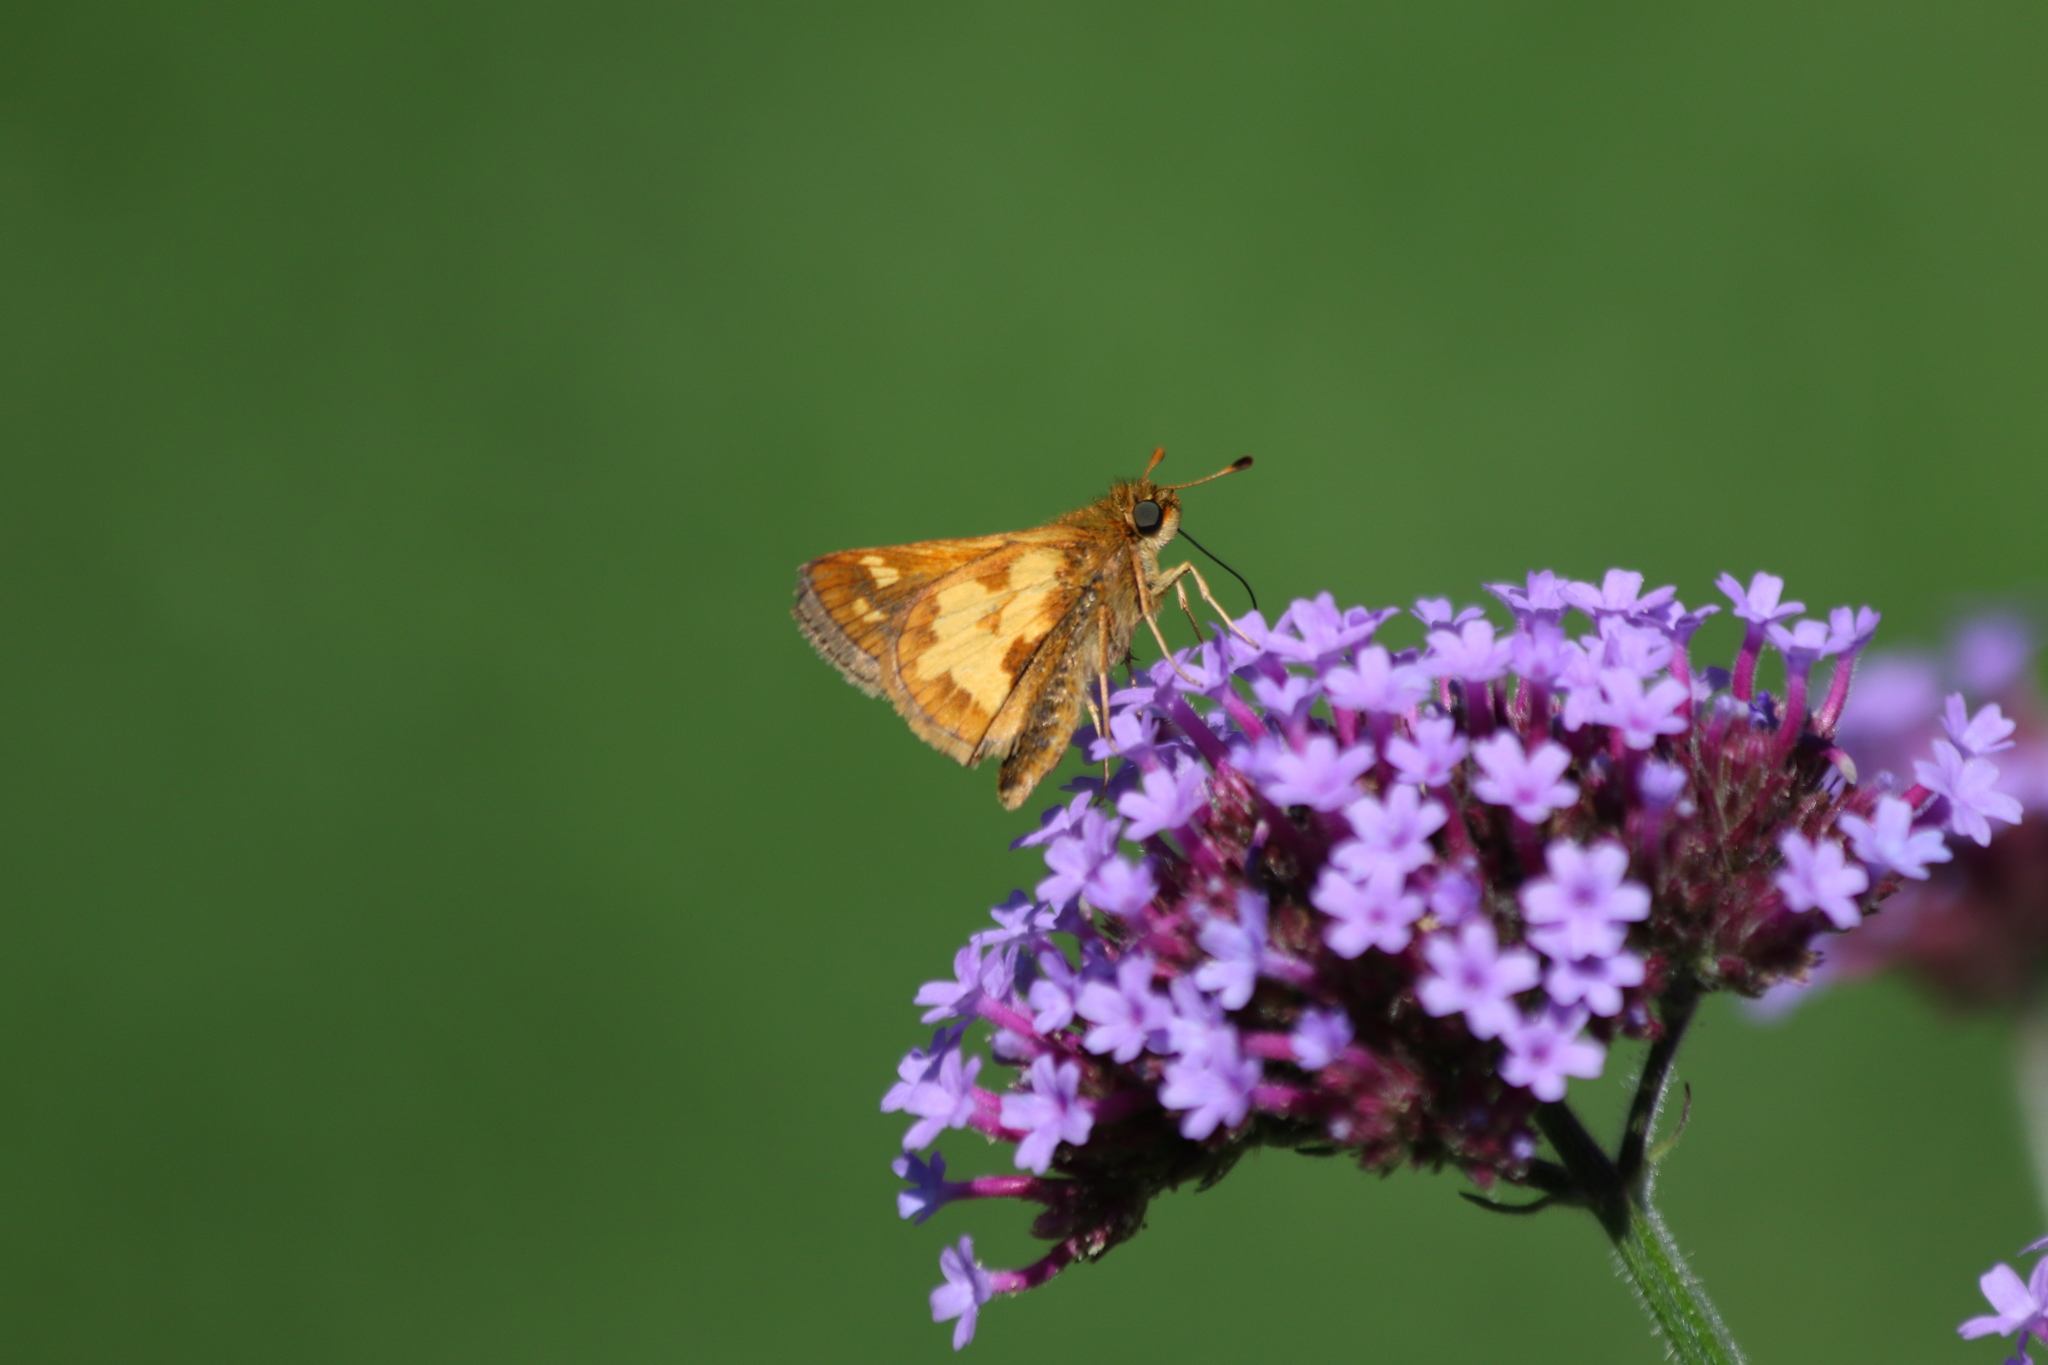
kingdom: Animalia
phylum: Arthropoda
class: Insecta
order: Lepidoptera
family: Hesperiidae
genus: Polites
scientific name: Polites coras
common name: Peck's skipper
